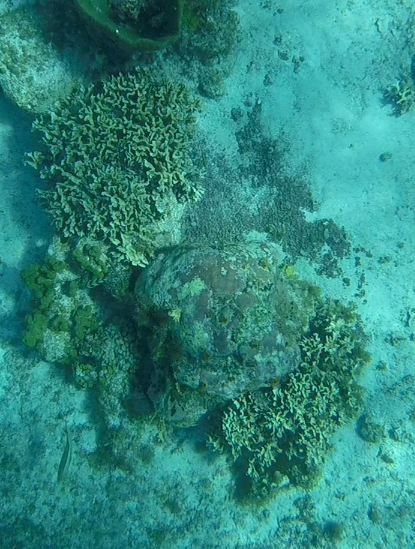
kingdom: Animalia
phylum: Cnidaria
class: Anthozoa
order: Scleractinia
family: Agariciidae
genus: Agaricia
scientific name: Agaricia tenuifolia
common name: Thin leaf lettuce coral
